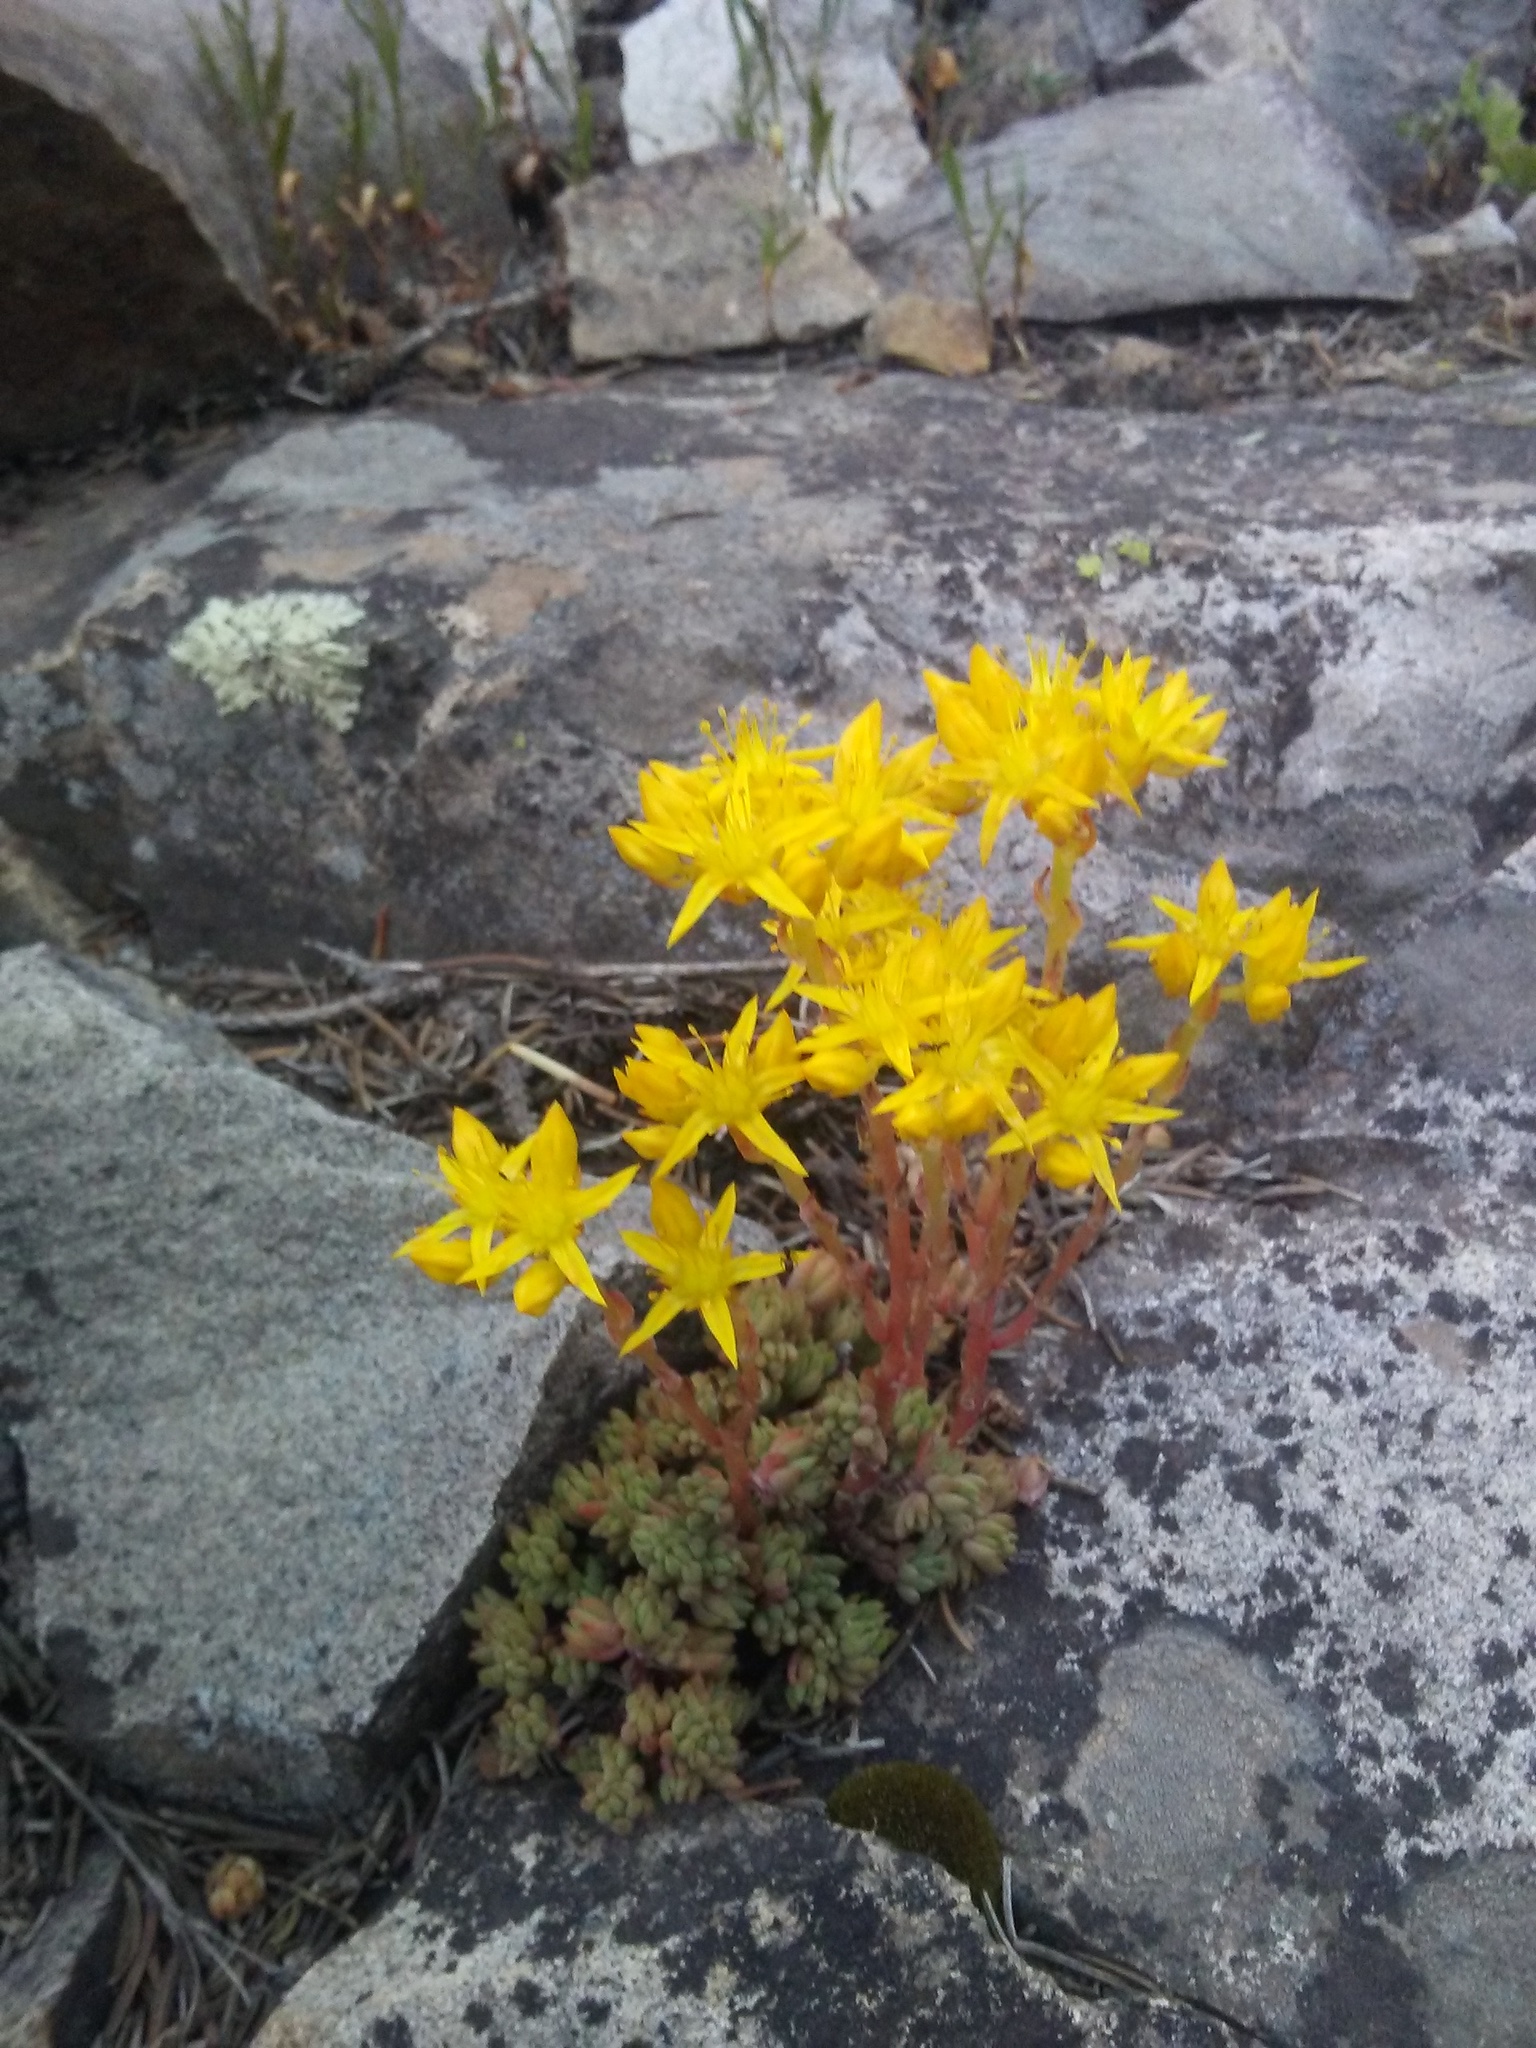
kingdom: Plantae
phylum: Tracheophyta
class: Magnoliopsida
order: Saxifragales
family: Crassulaceae
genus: Sedum
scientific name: Sedum lanceolatum
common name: Common stonecrop
